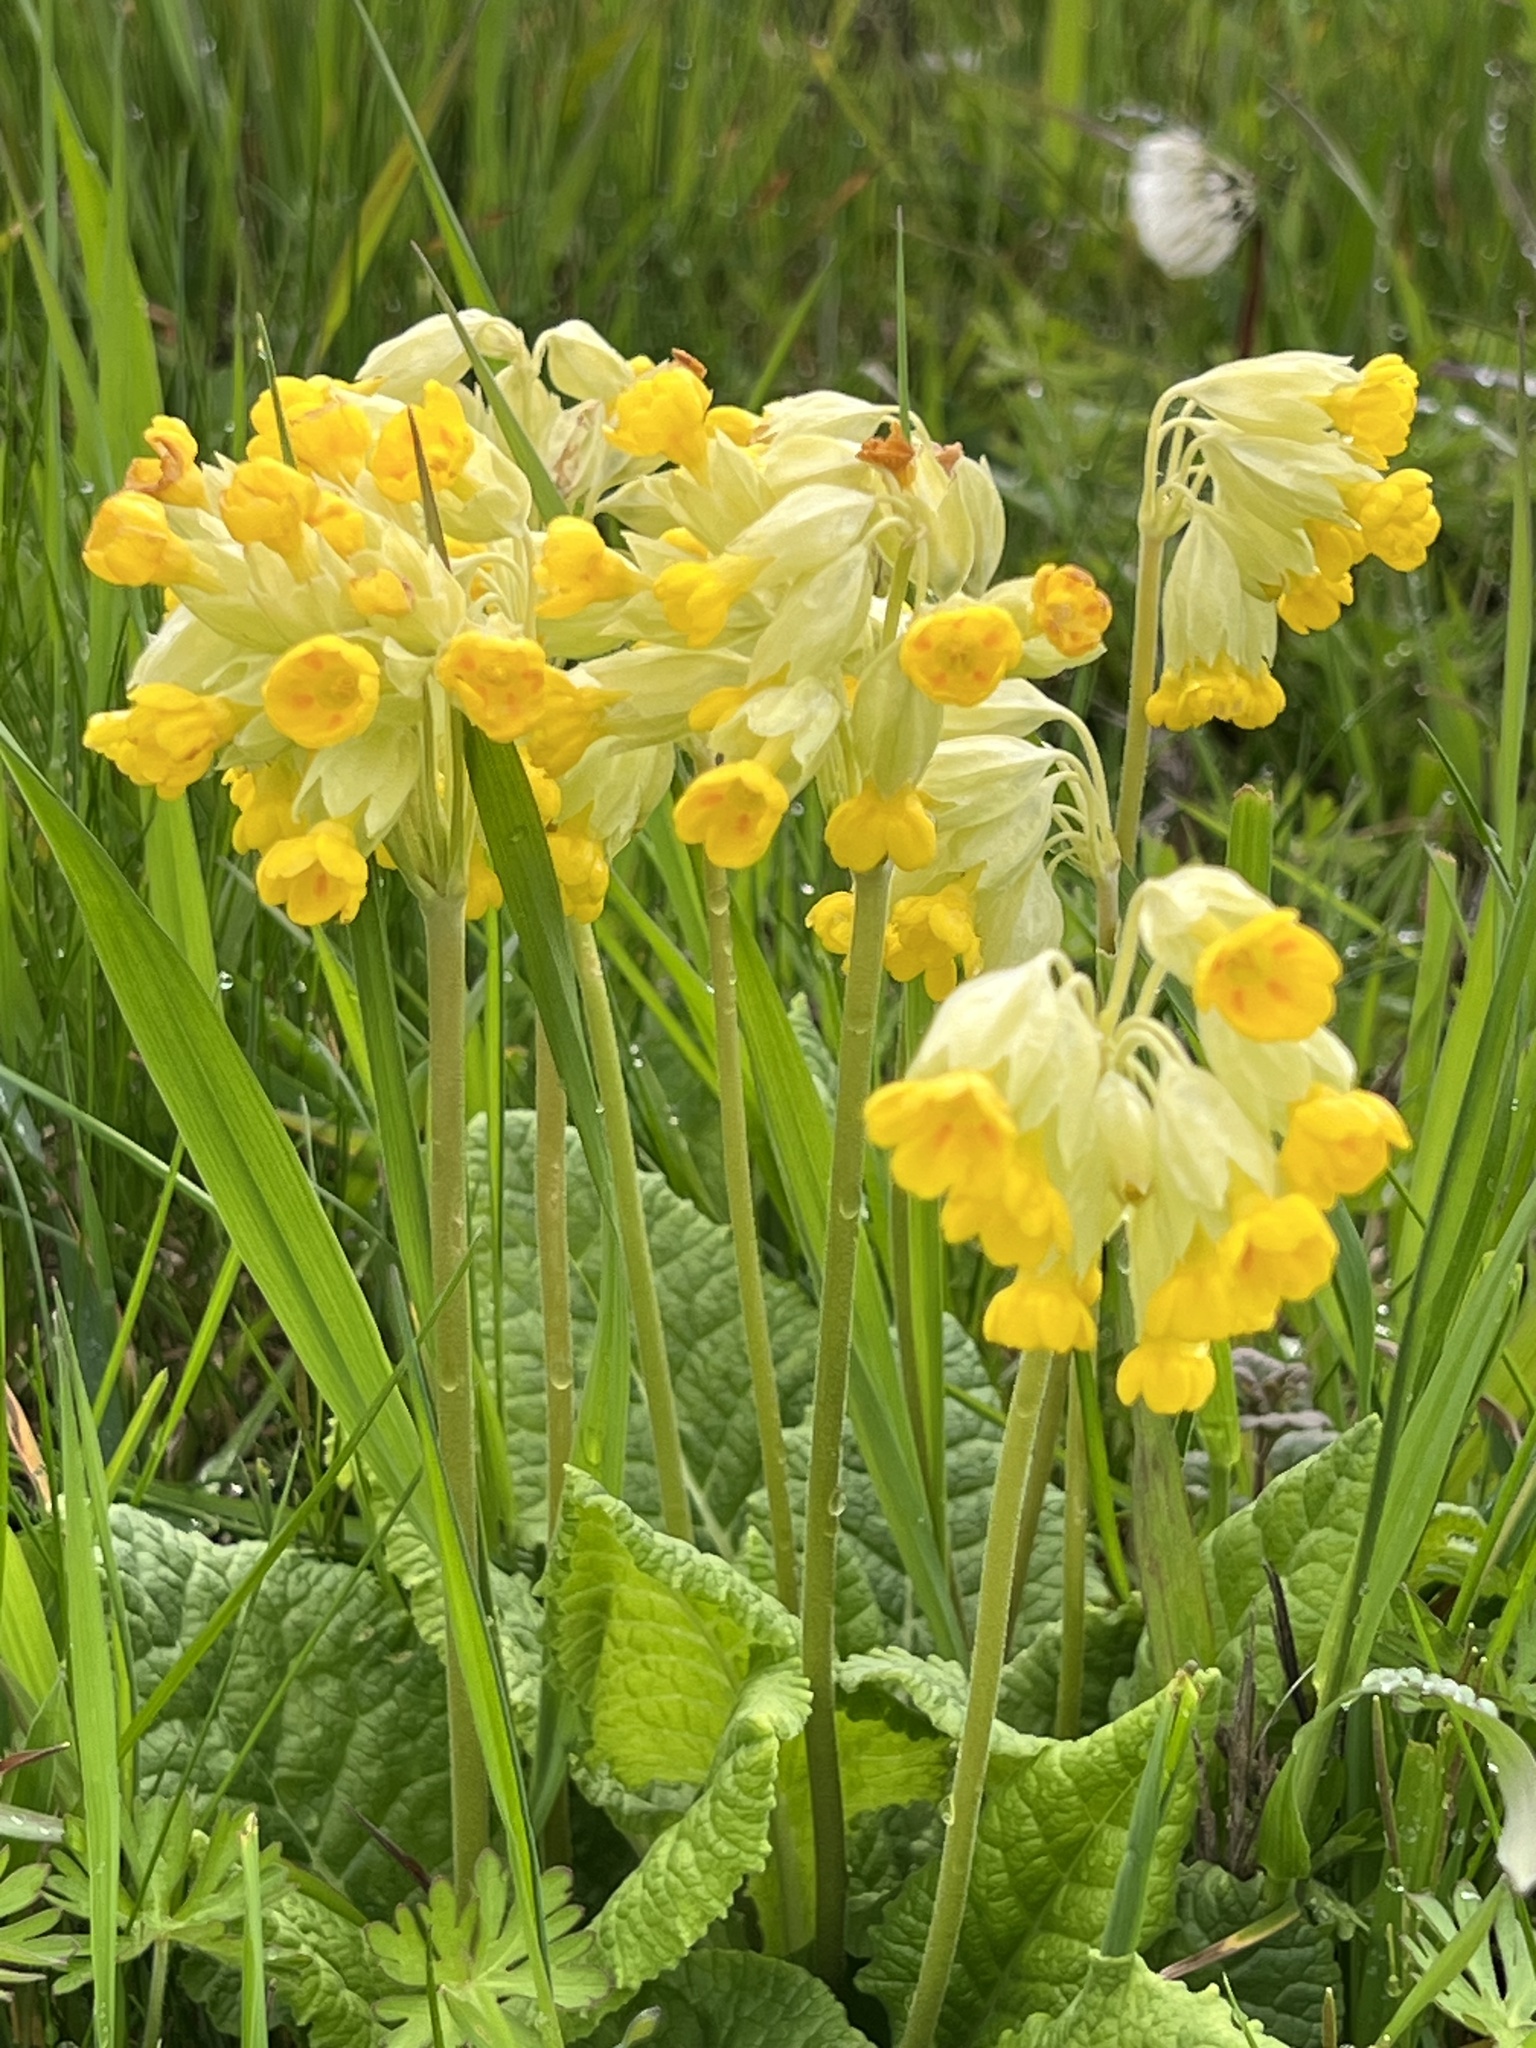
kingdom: Plantae
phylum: Tracheophyta
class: Magnoliopsida
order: Ericales
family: Primulaceae
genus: Primula
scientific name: Primula veris
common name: Cowslip
